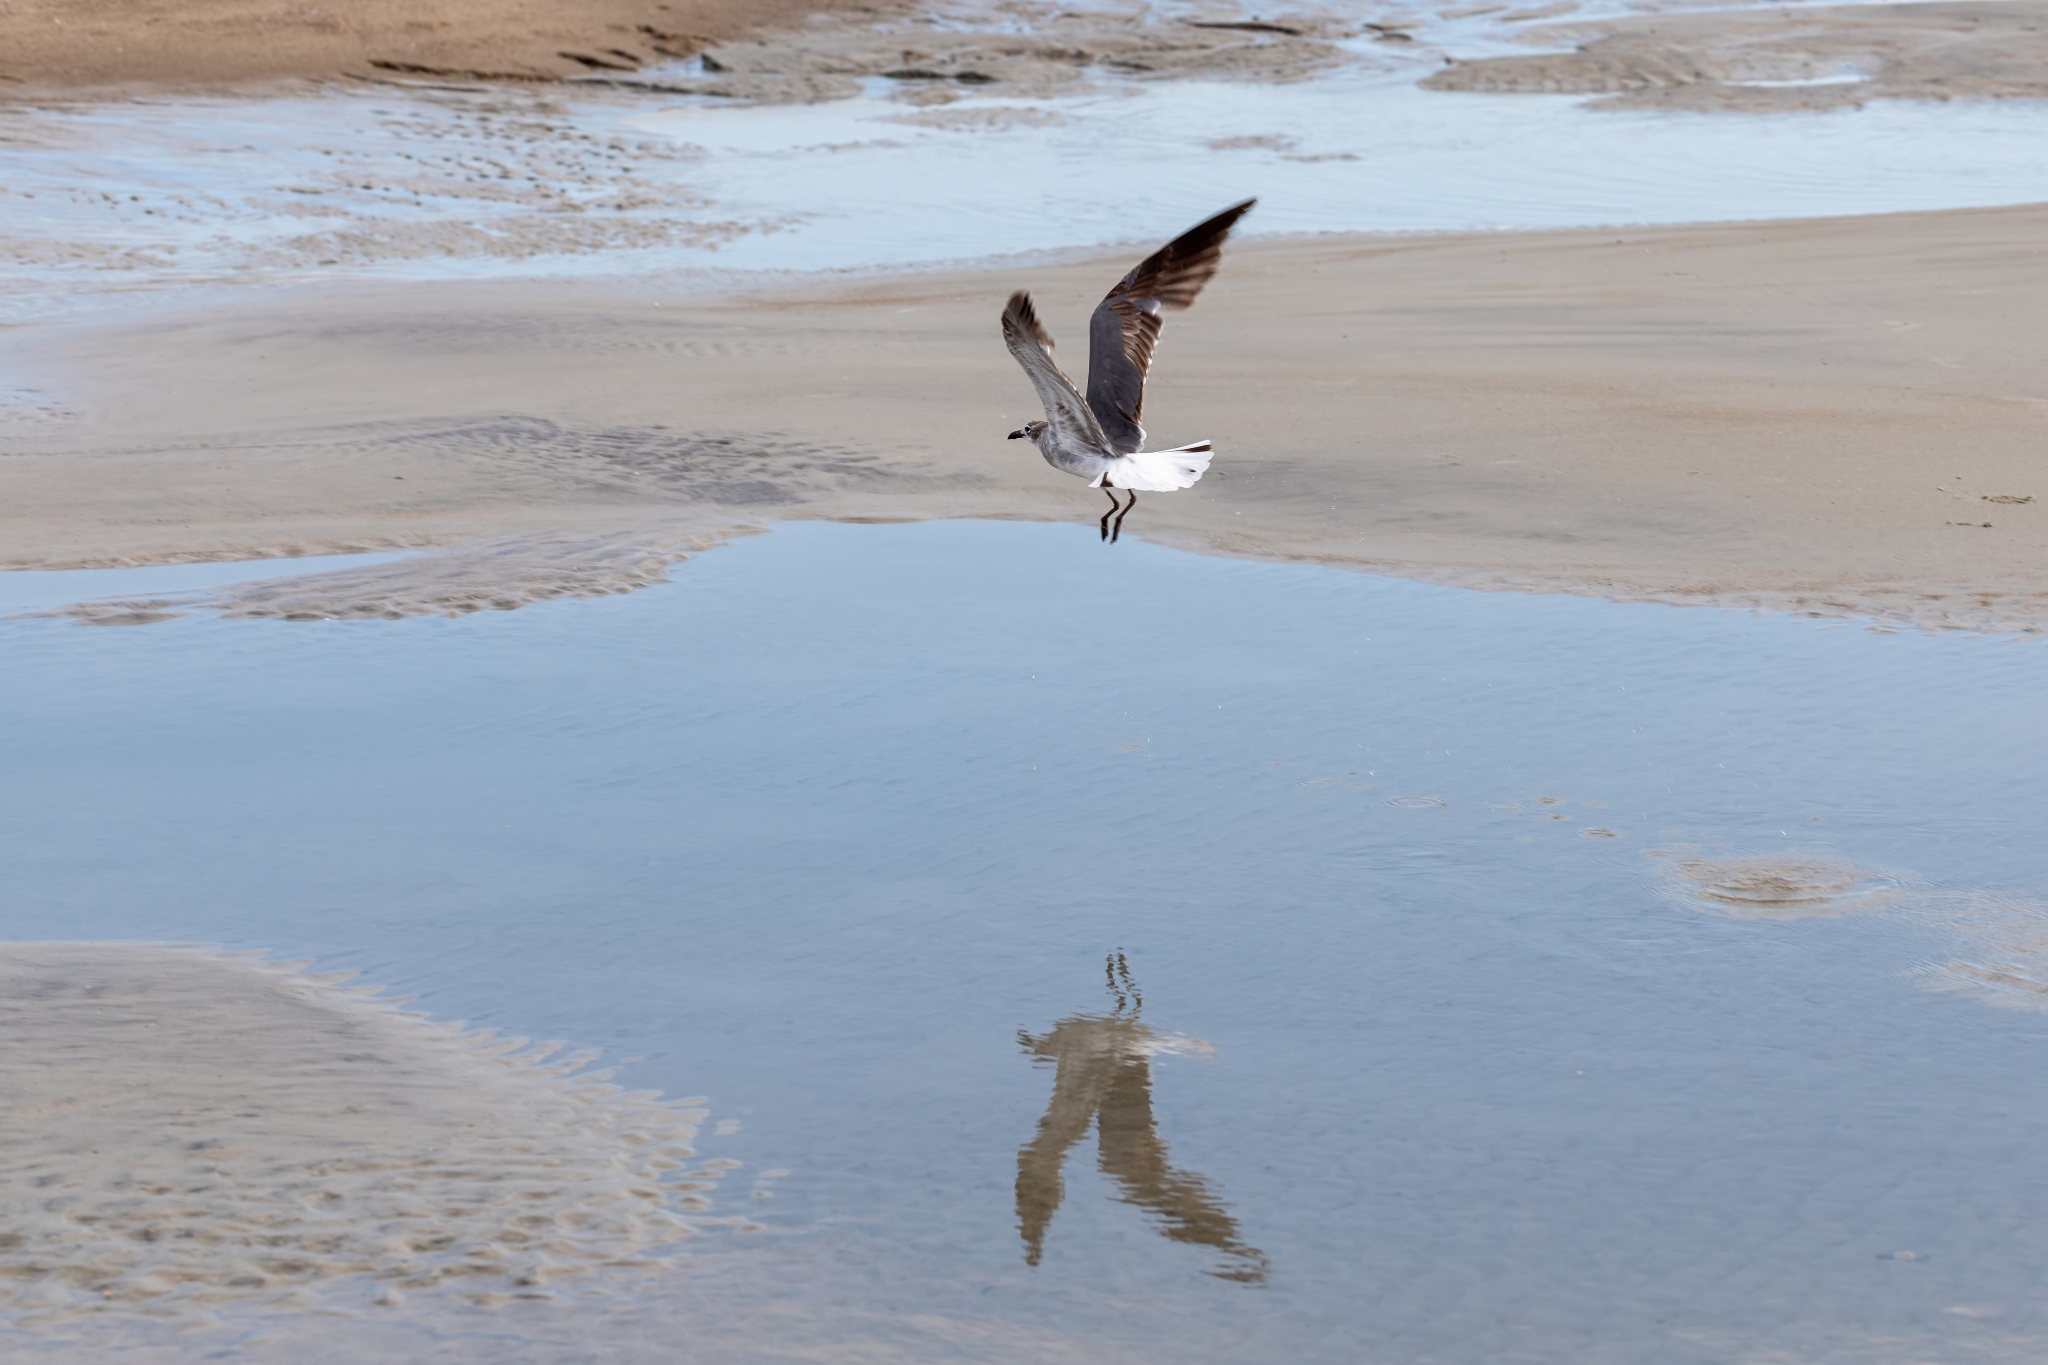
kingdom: Animalia
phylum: Chordata
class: Aves
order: Charadriiformes
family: Laridae
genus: Leucophaeus
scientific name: Leucophaeus atricilla
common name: Laughing gull
